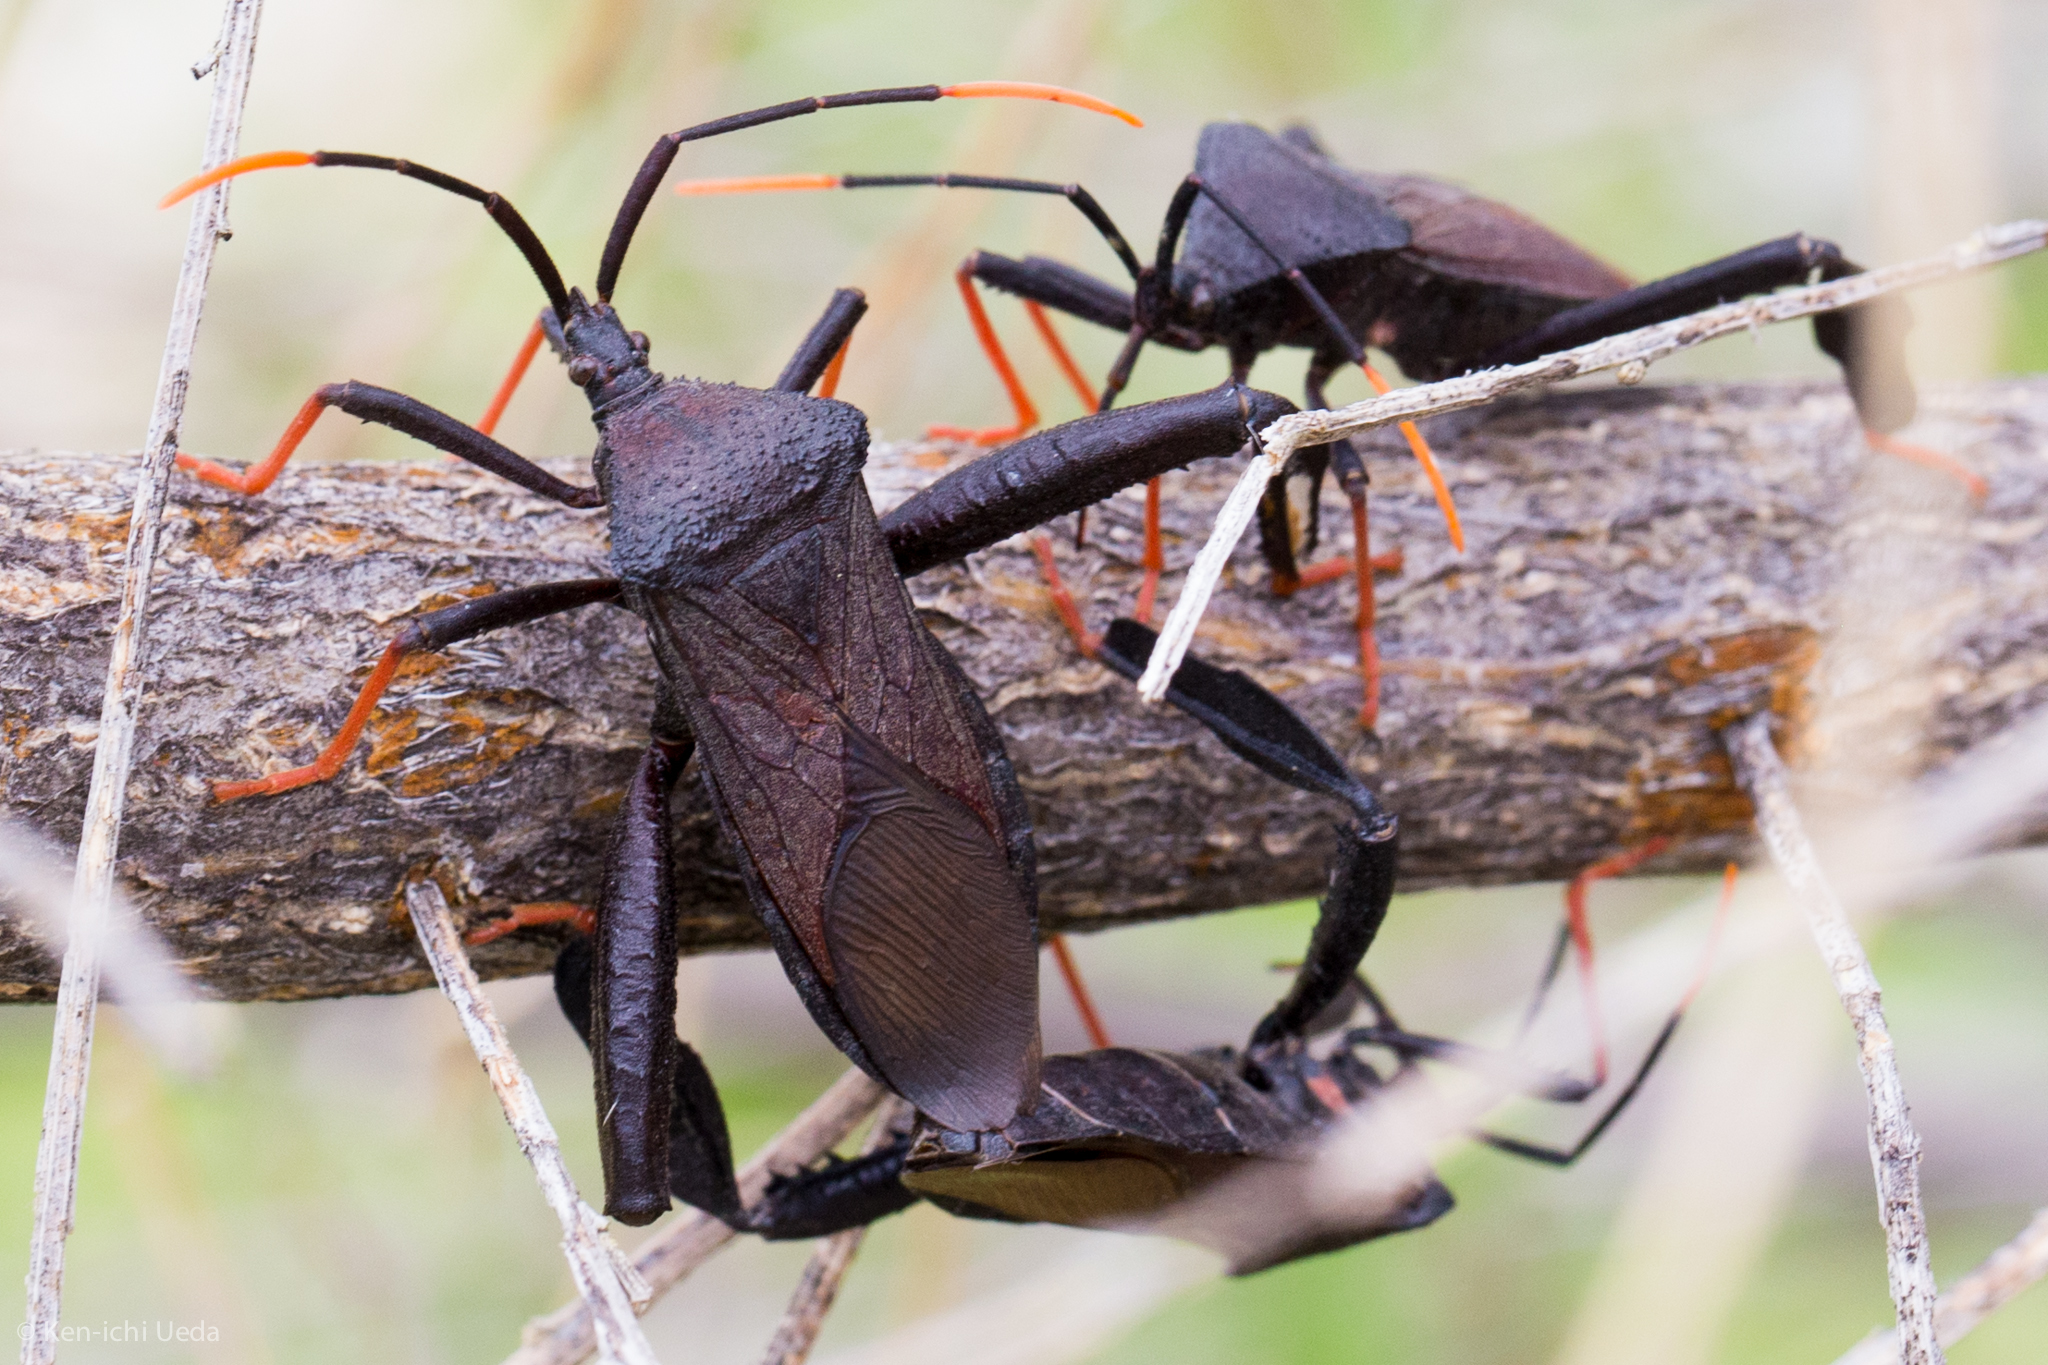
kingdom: Animalia
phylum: Arthropoda
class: Insecta
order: Hemiptera
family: Coreidae
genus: Acanthocephala
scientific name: Acanthocephala thomasi
